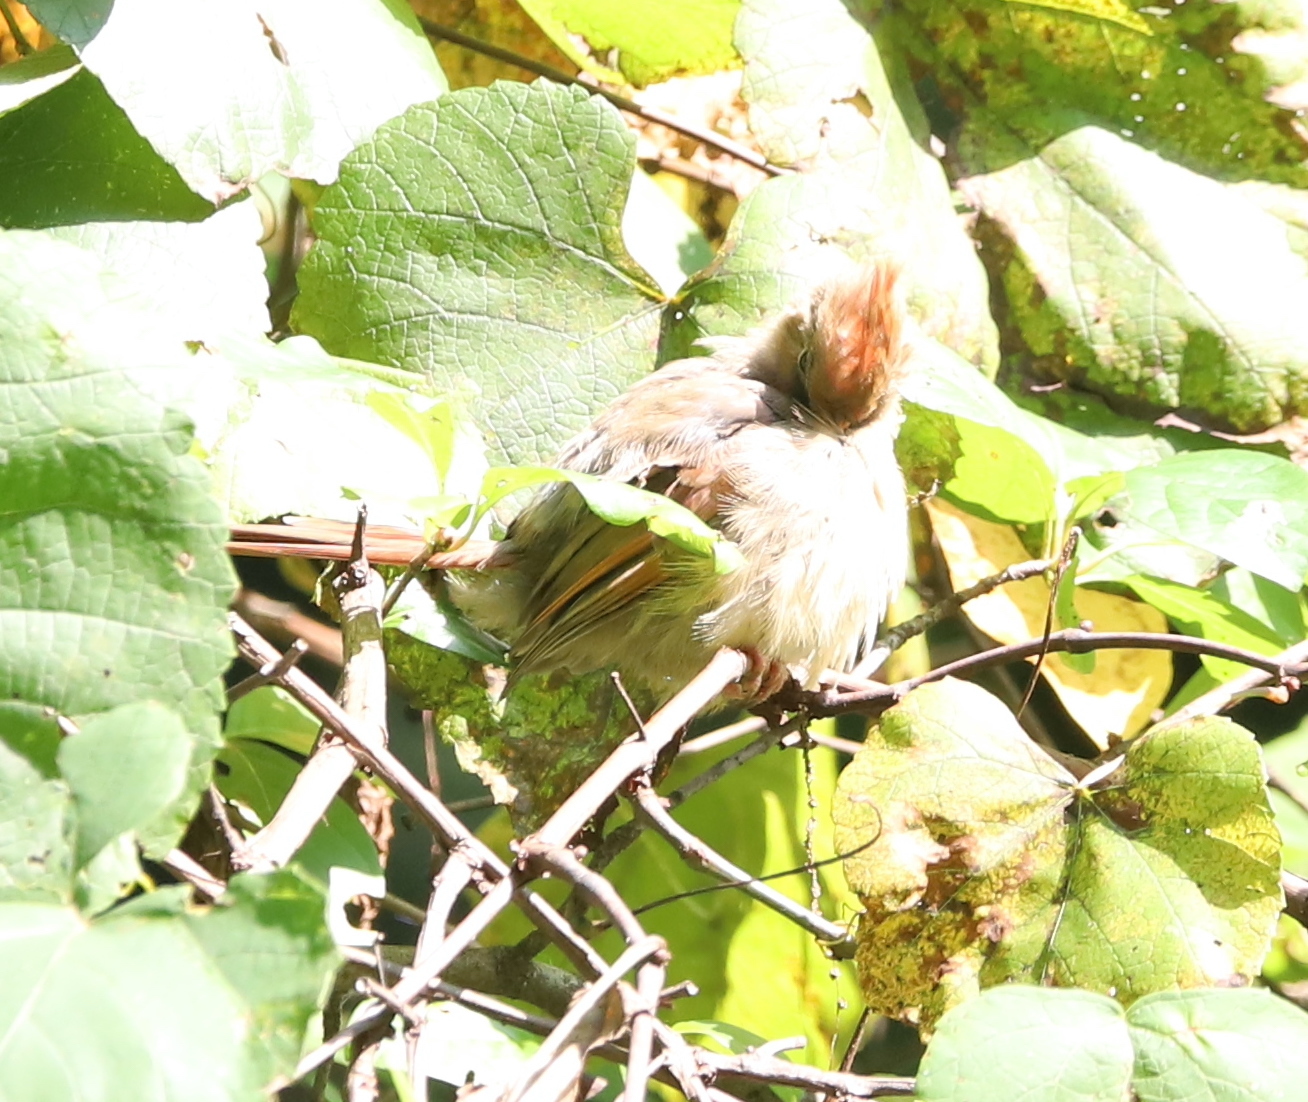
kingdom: Animalia
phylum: Chordata
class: Aves
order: Passeriformes
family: Cardinalidae
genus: Cardinalis
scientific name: Cardinalis cardinalis
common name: Northern cardinal
